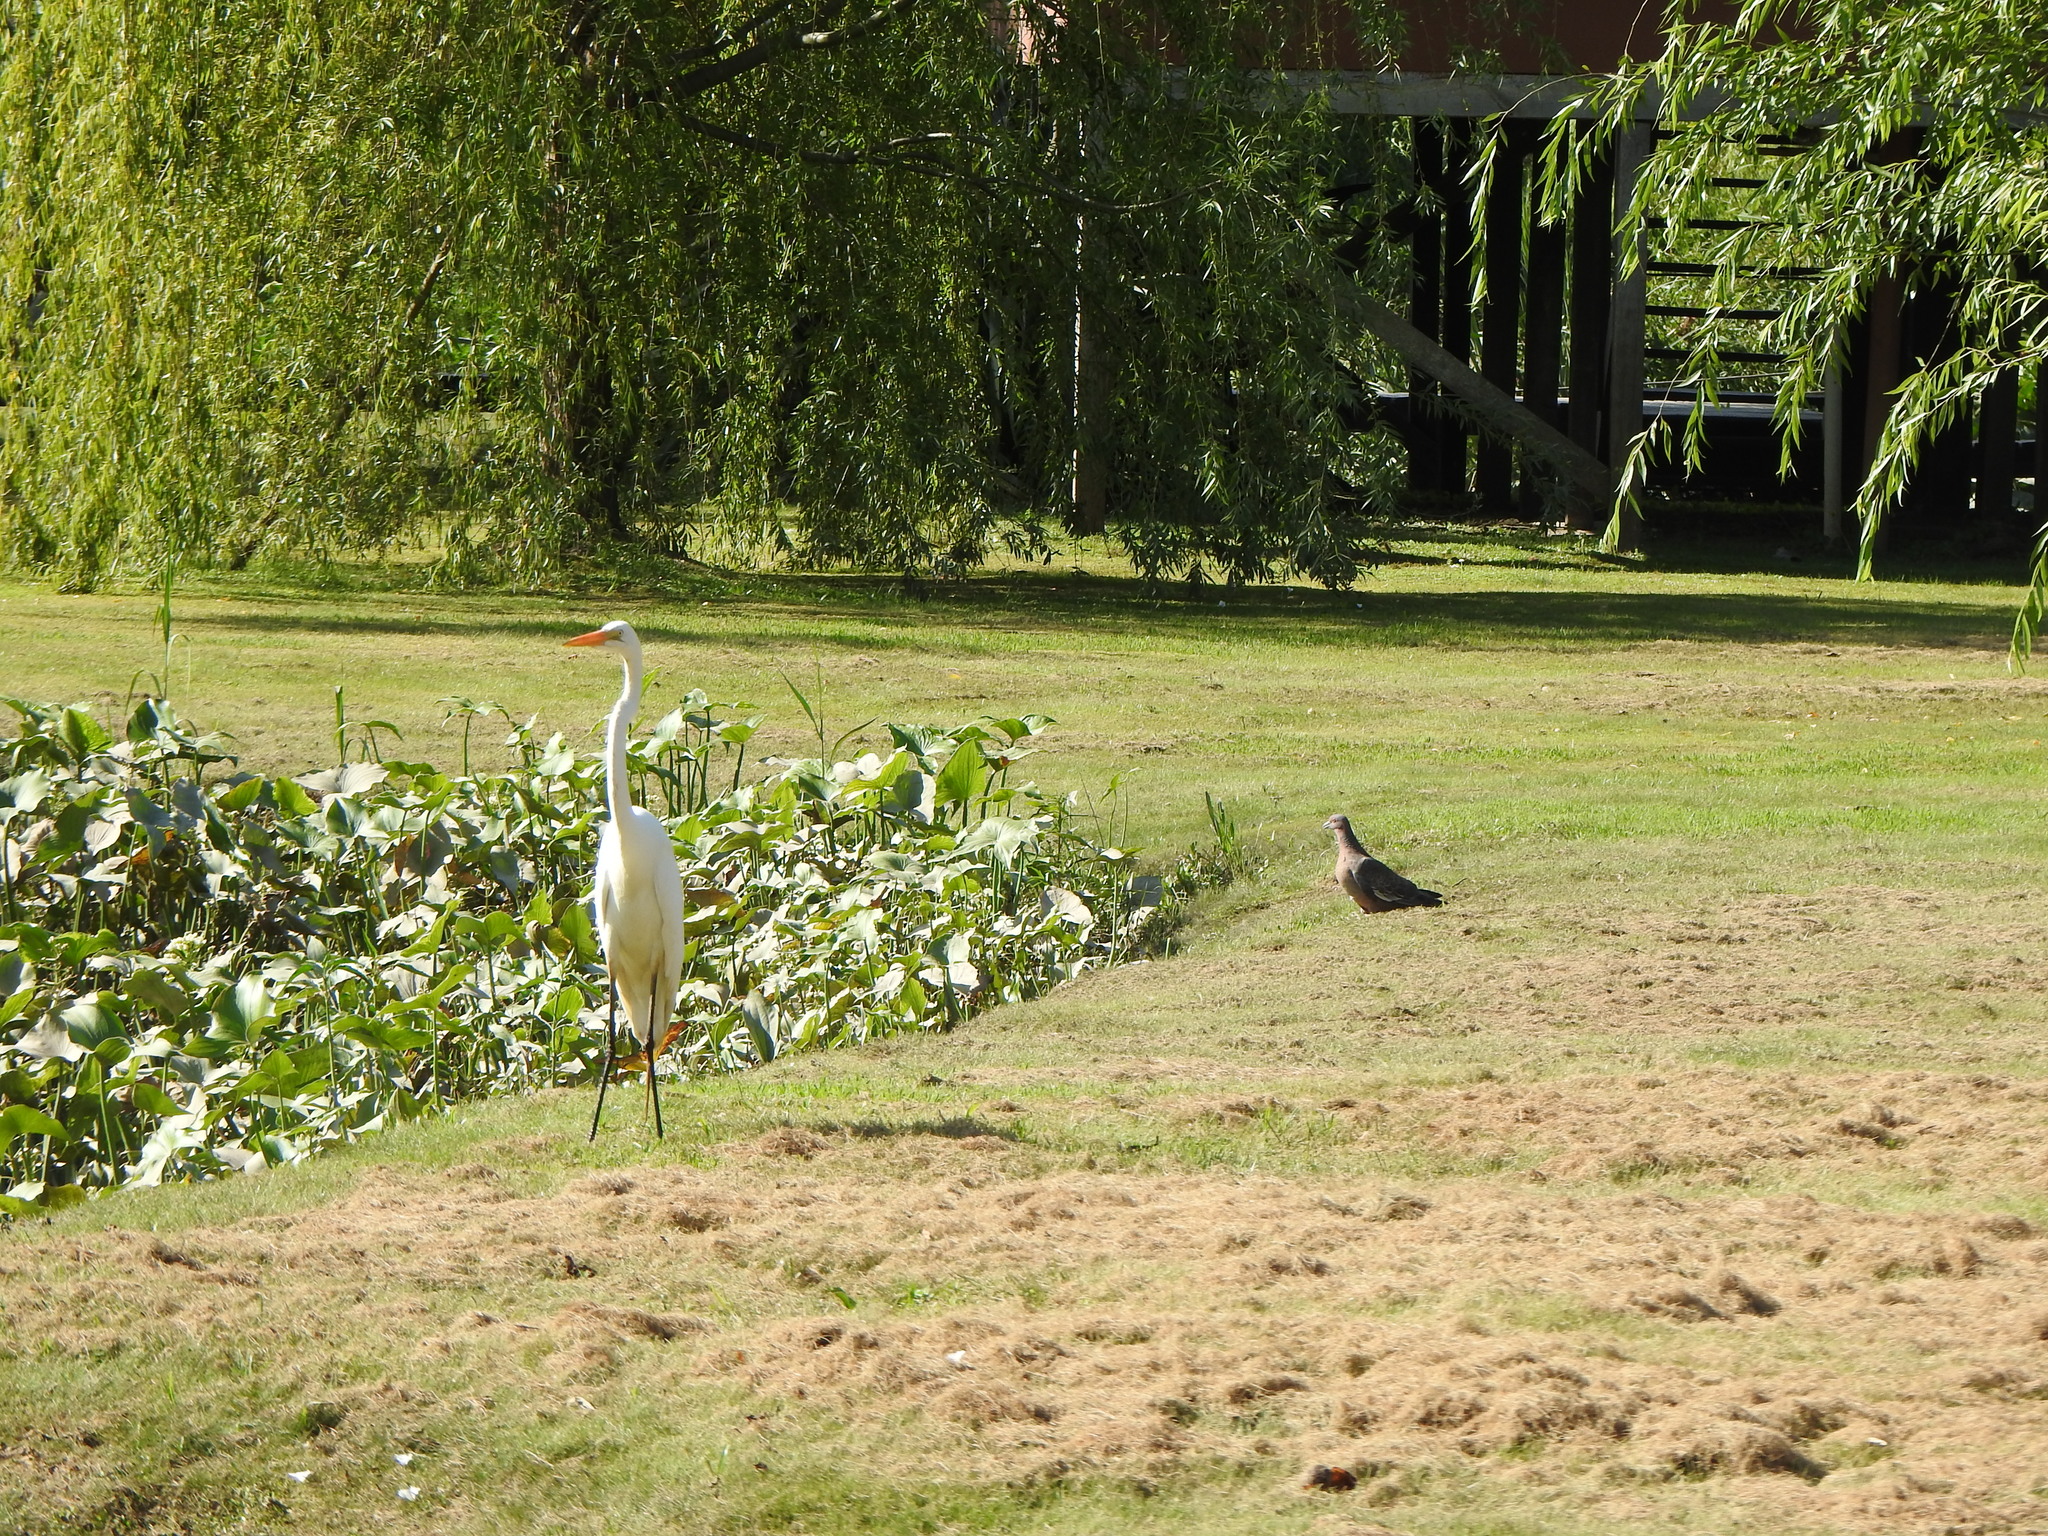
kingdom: Animalia
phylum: Chordata
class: Aves
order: Pelecaniformes
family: Ardeidae
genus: Ardea
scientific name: Ardea alba
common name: Great egret
